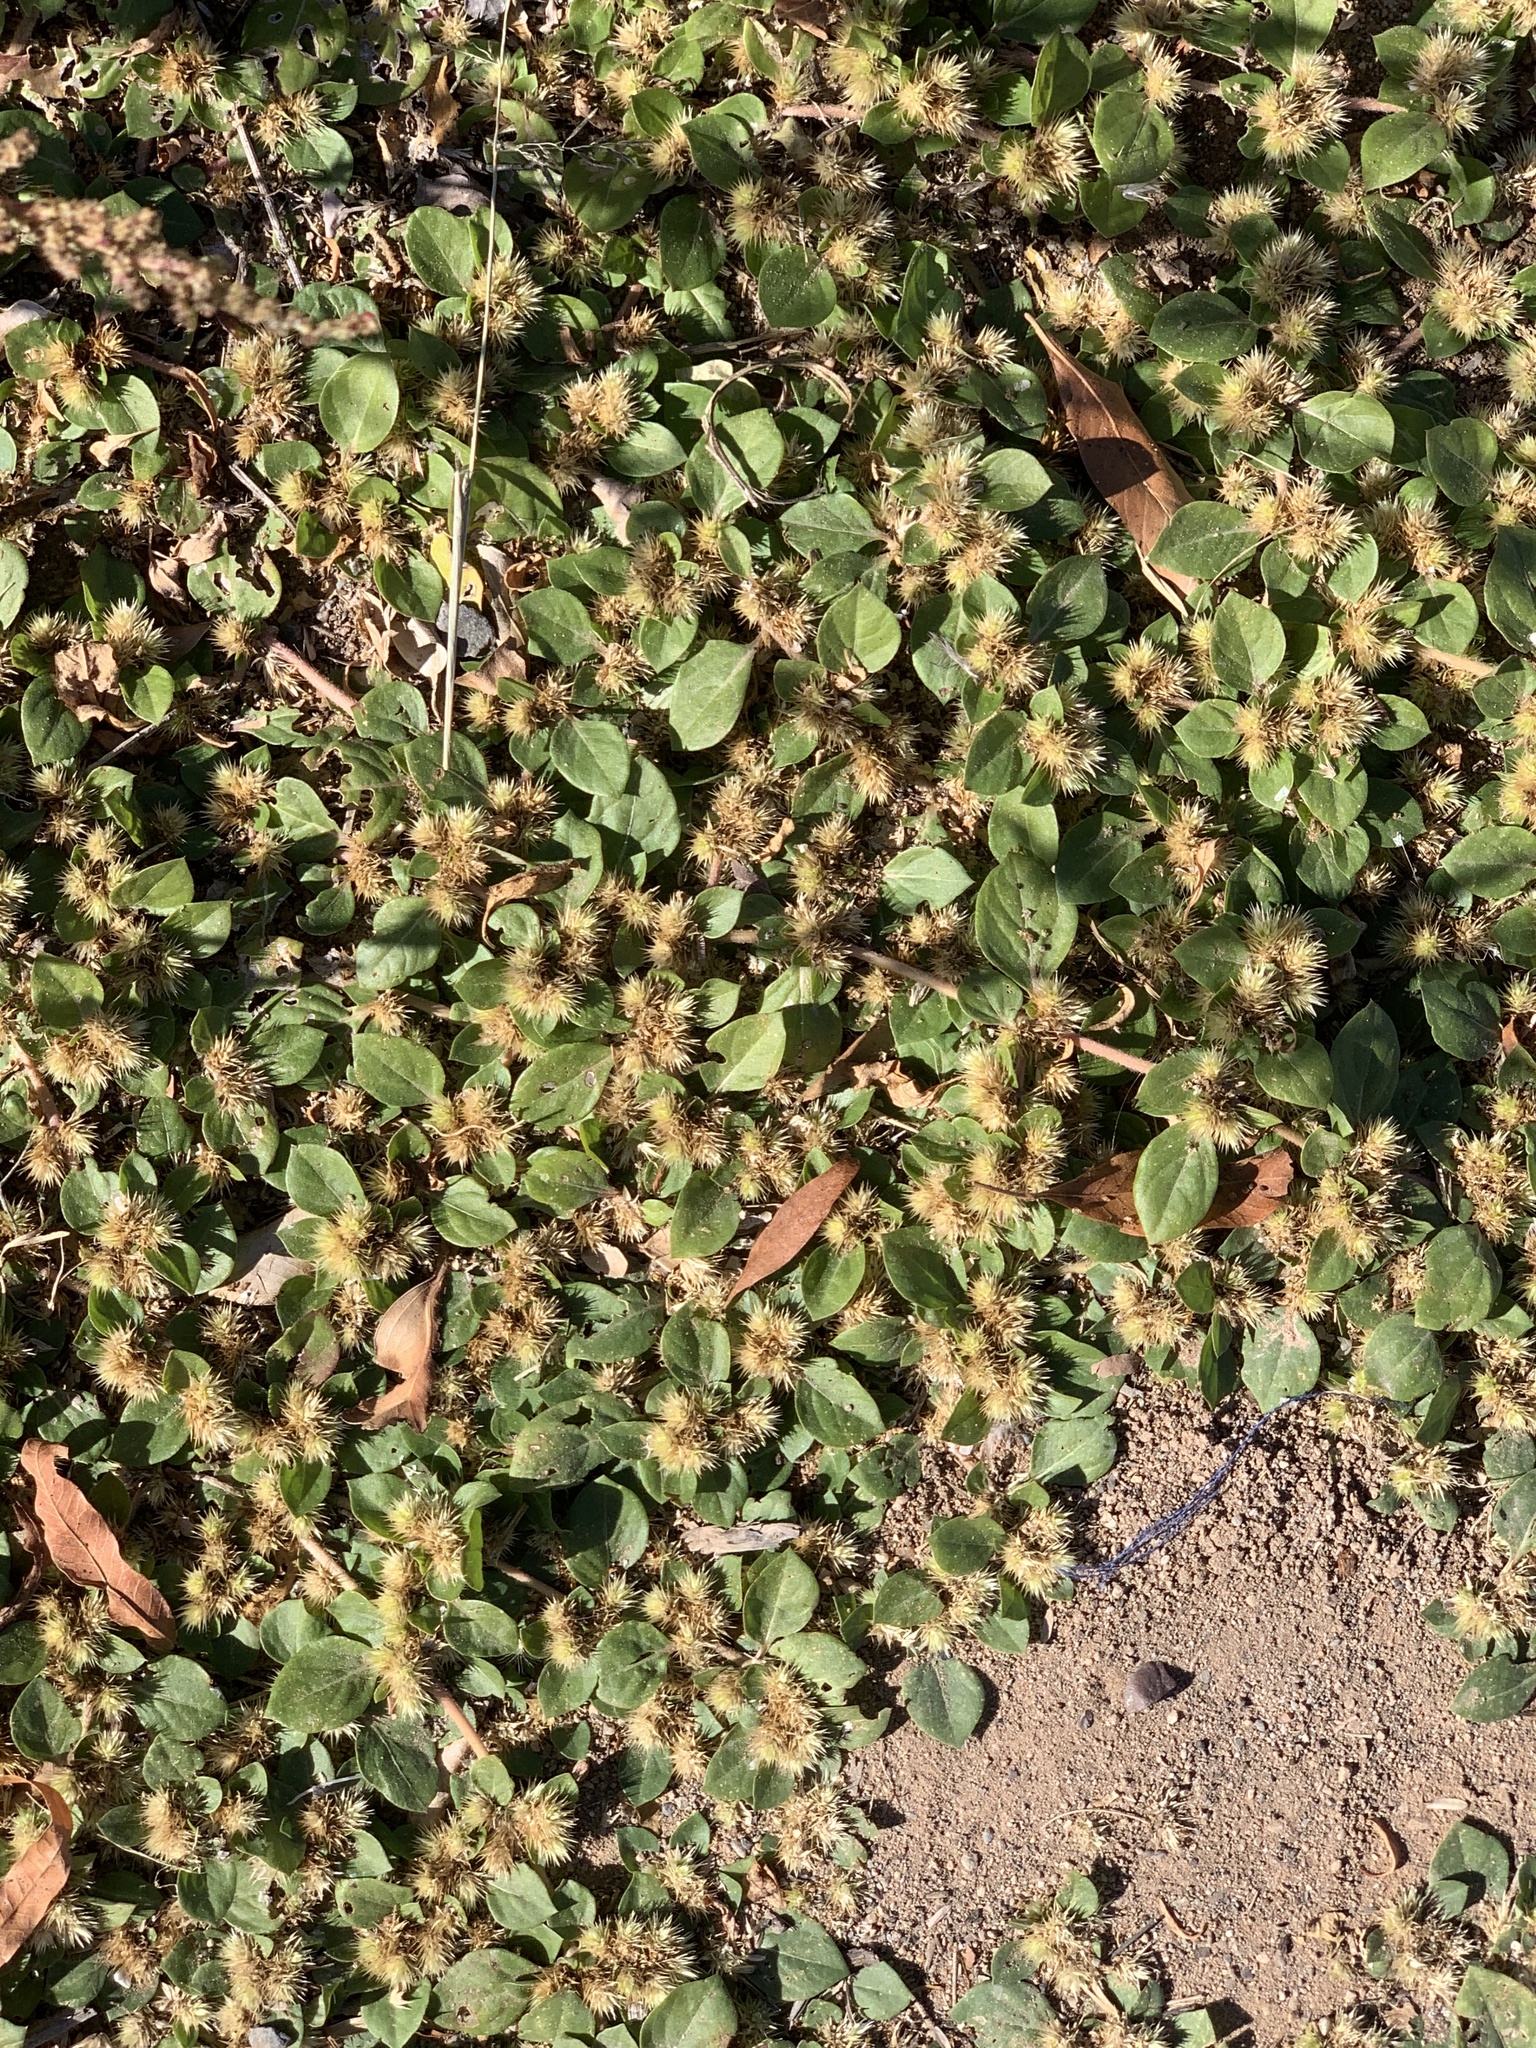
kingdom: Plantae
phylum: Tracheophyta
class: Magnoliopsida
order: Caryophyllales
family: Amaranthaceae
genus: Alternanthera
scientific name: Alternanthera pungens
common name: Khakiweed
